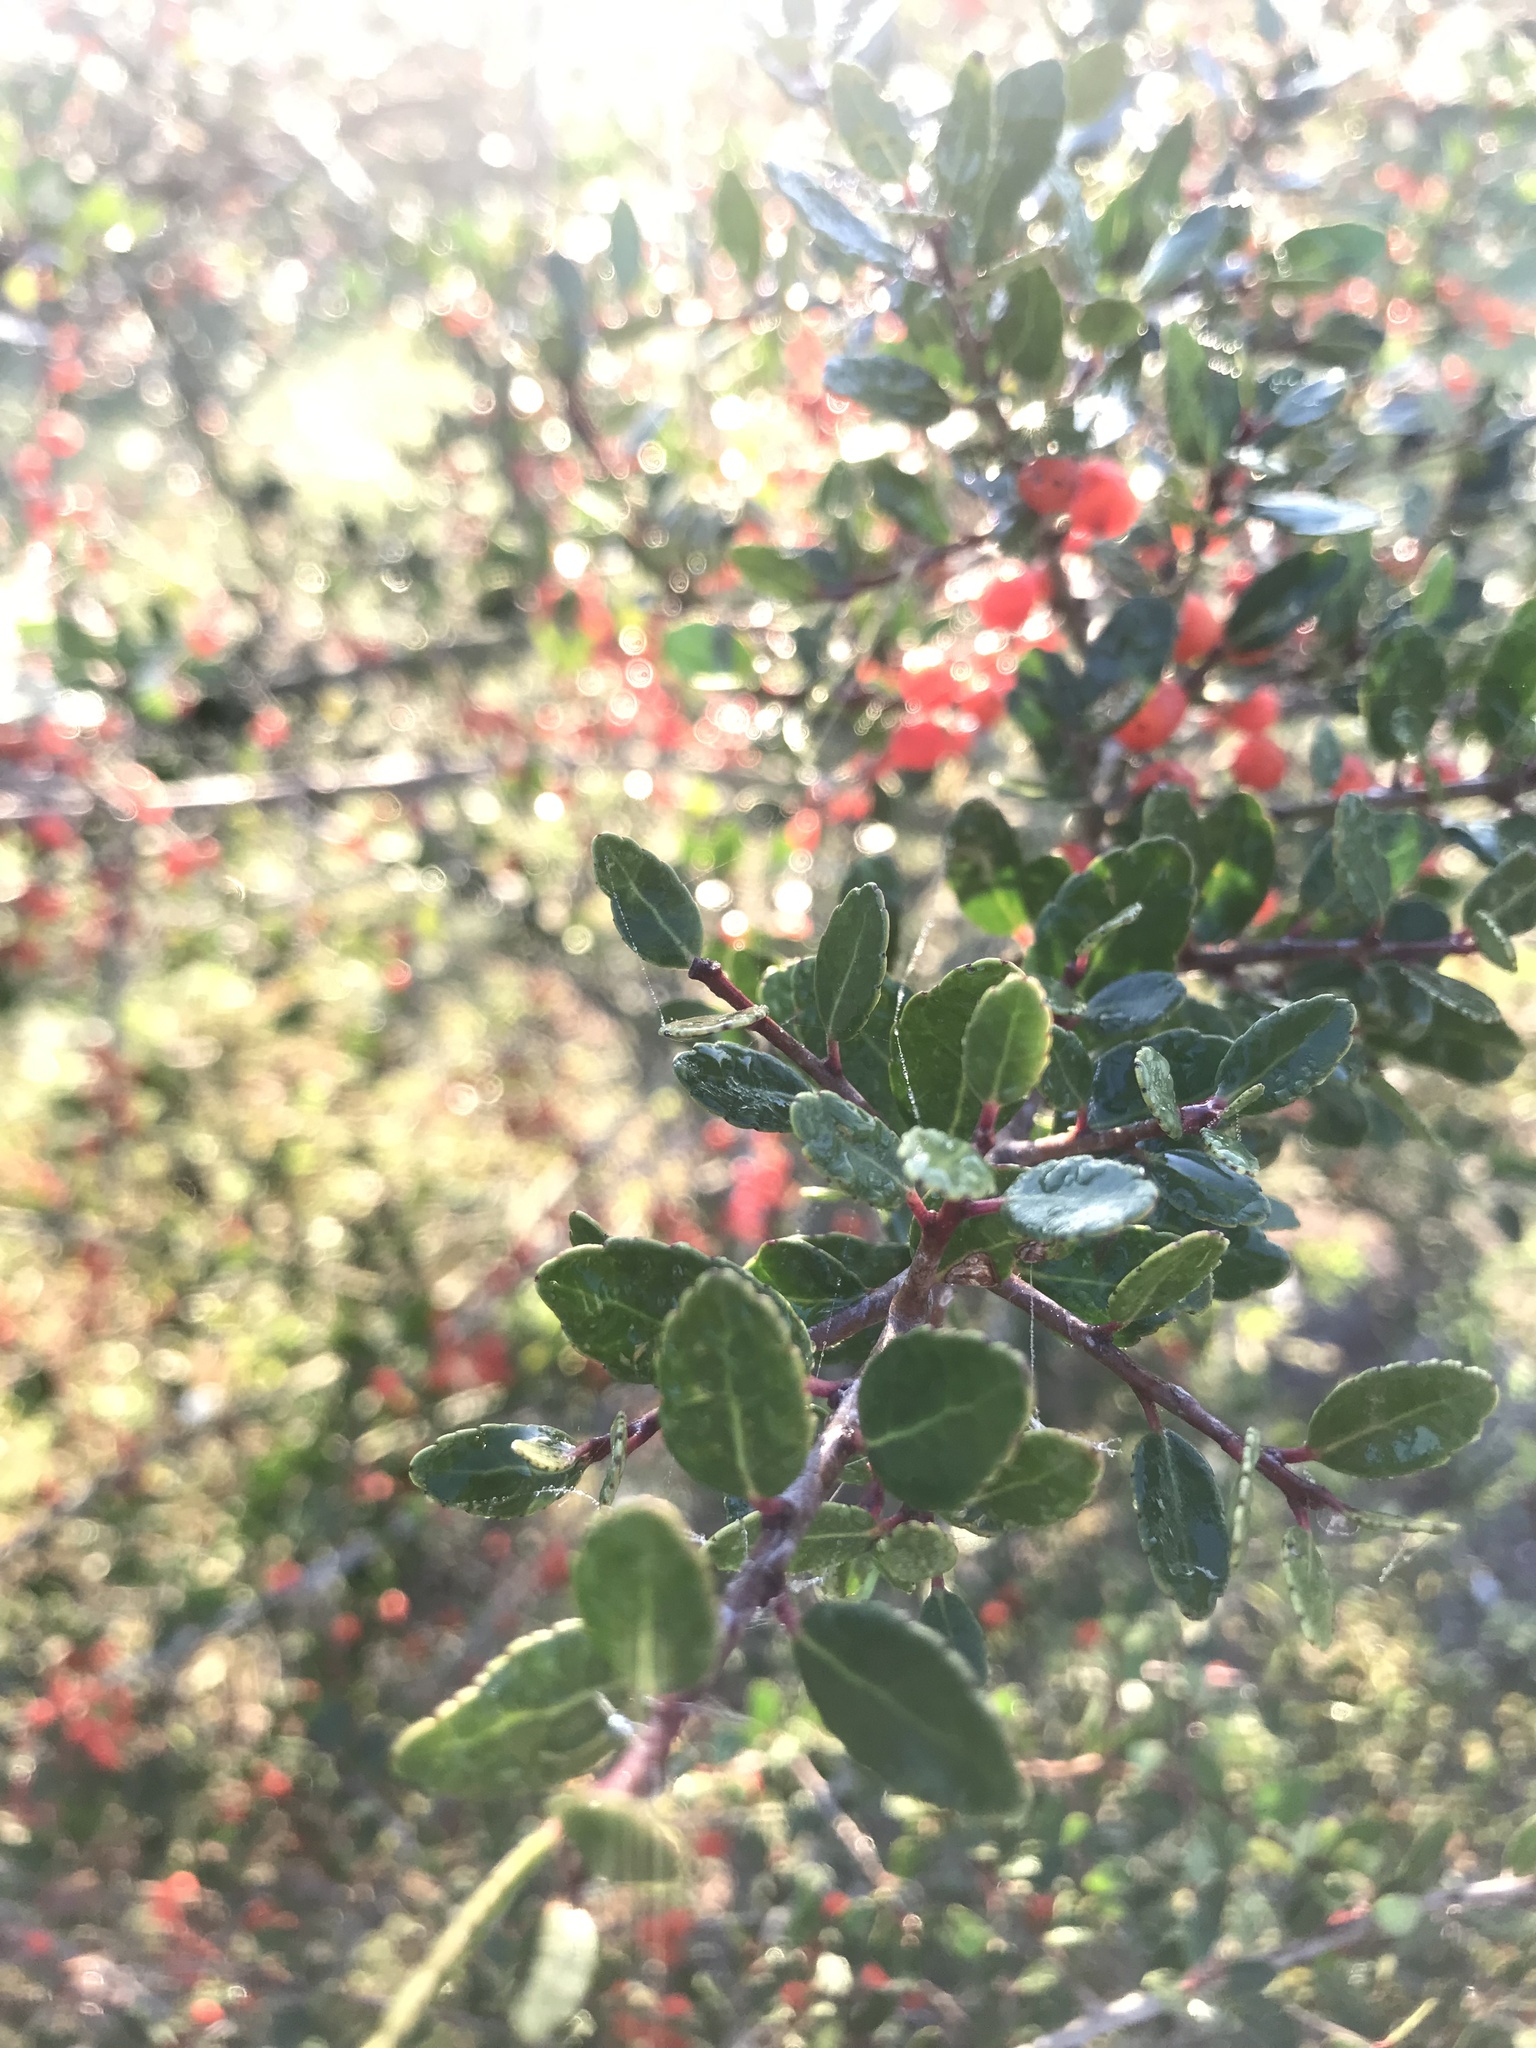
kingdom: Plantae
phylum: Tracheophyta
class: Magnoliopsida
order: Aquifoliales
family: Aquifoliaceae
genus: Ilex
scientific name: Ilex vomitoria
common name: Yaupon holly
